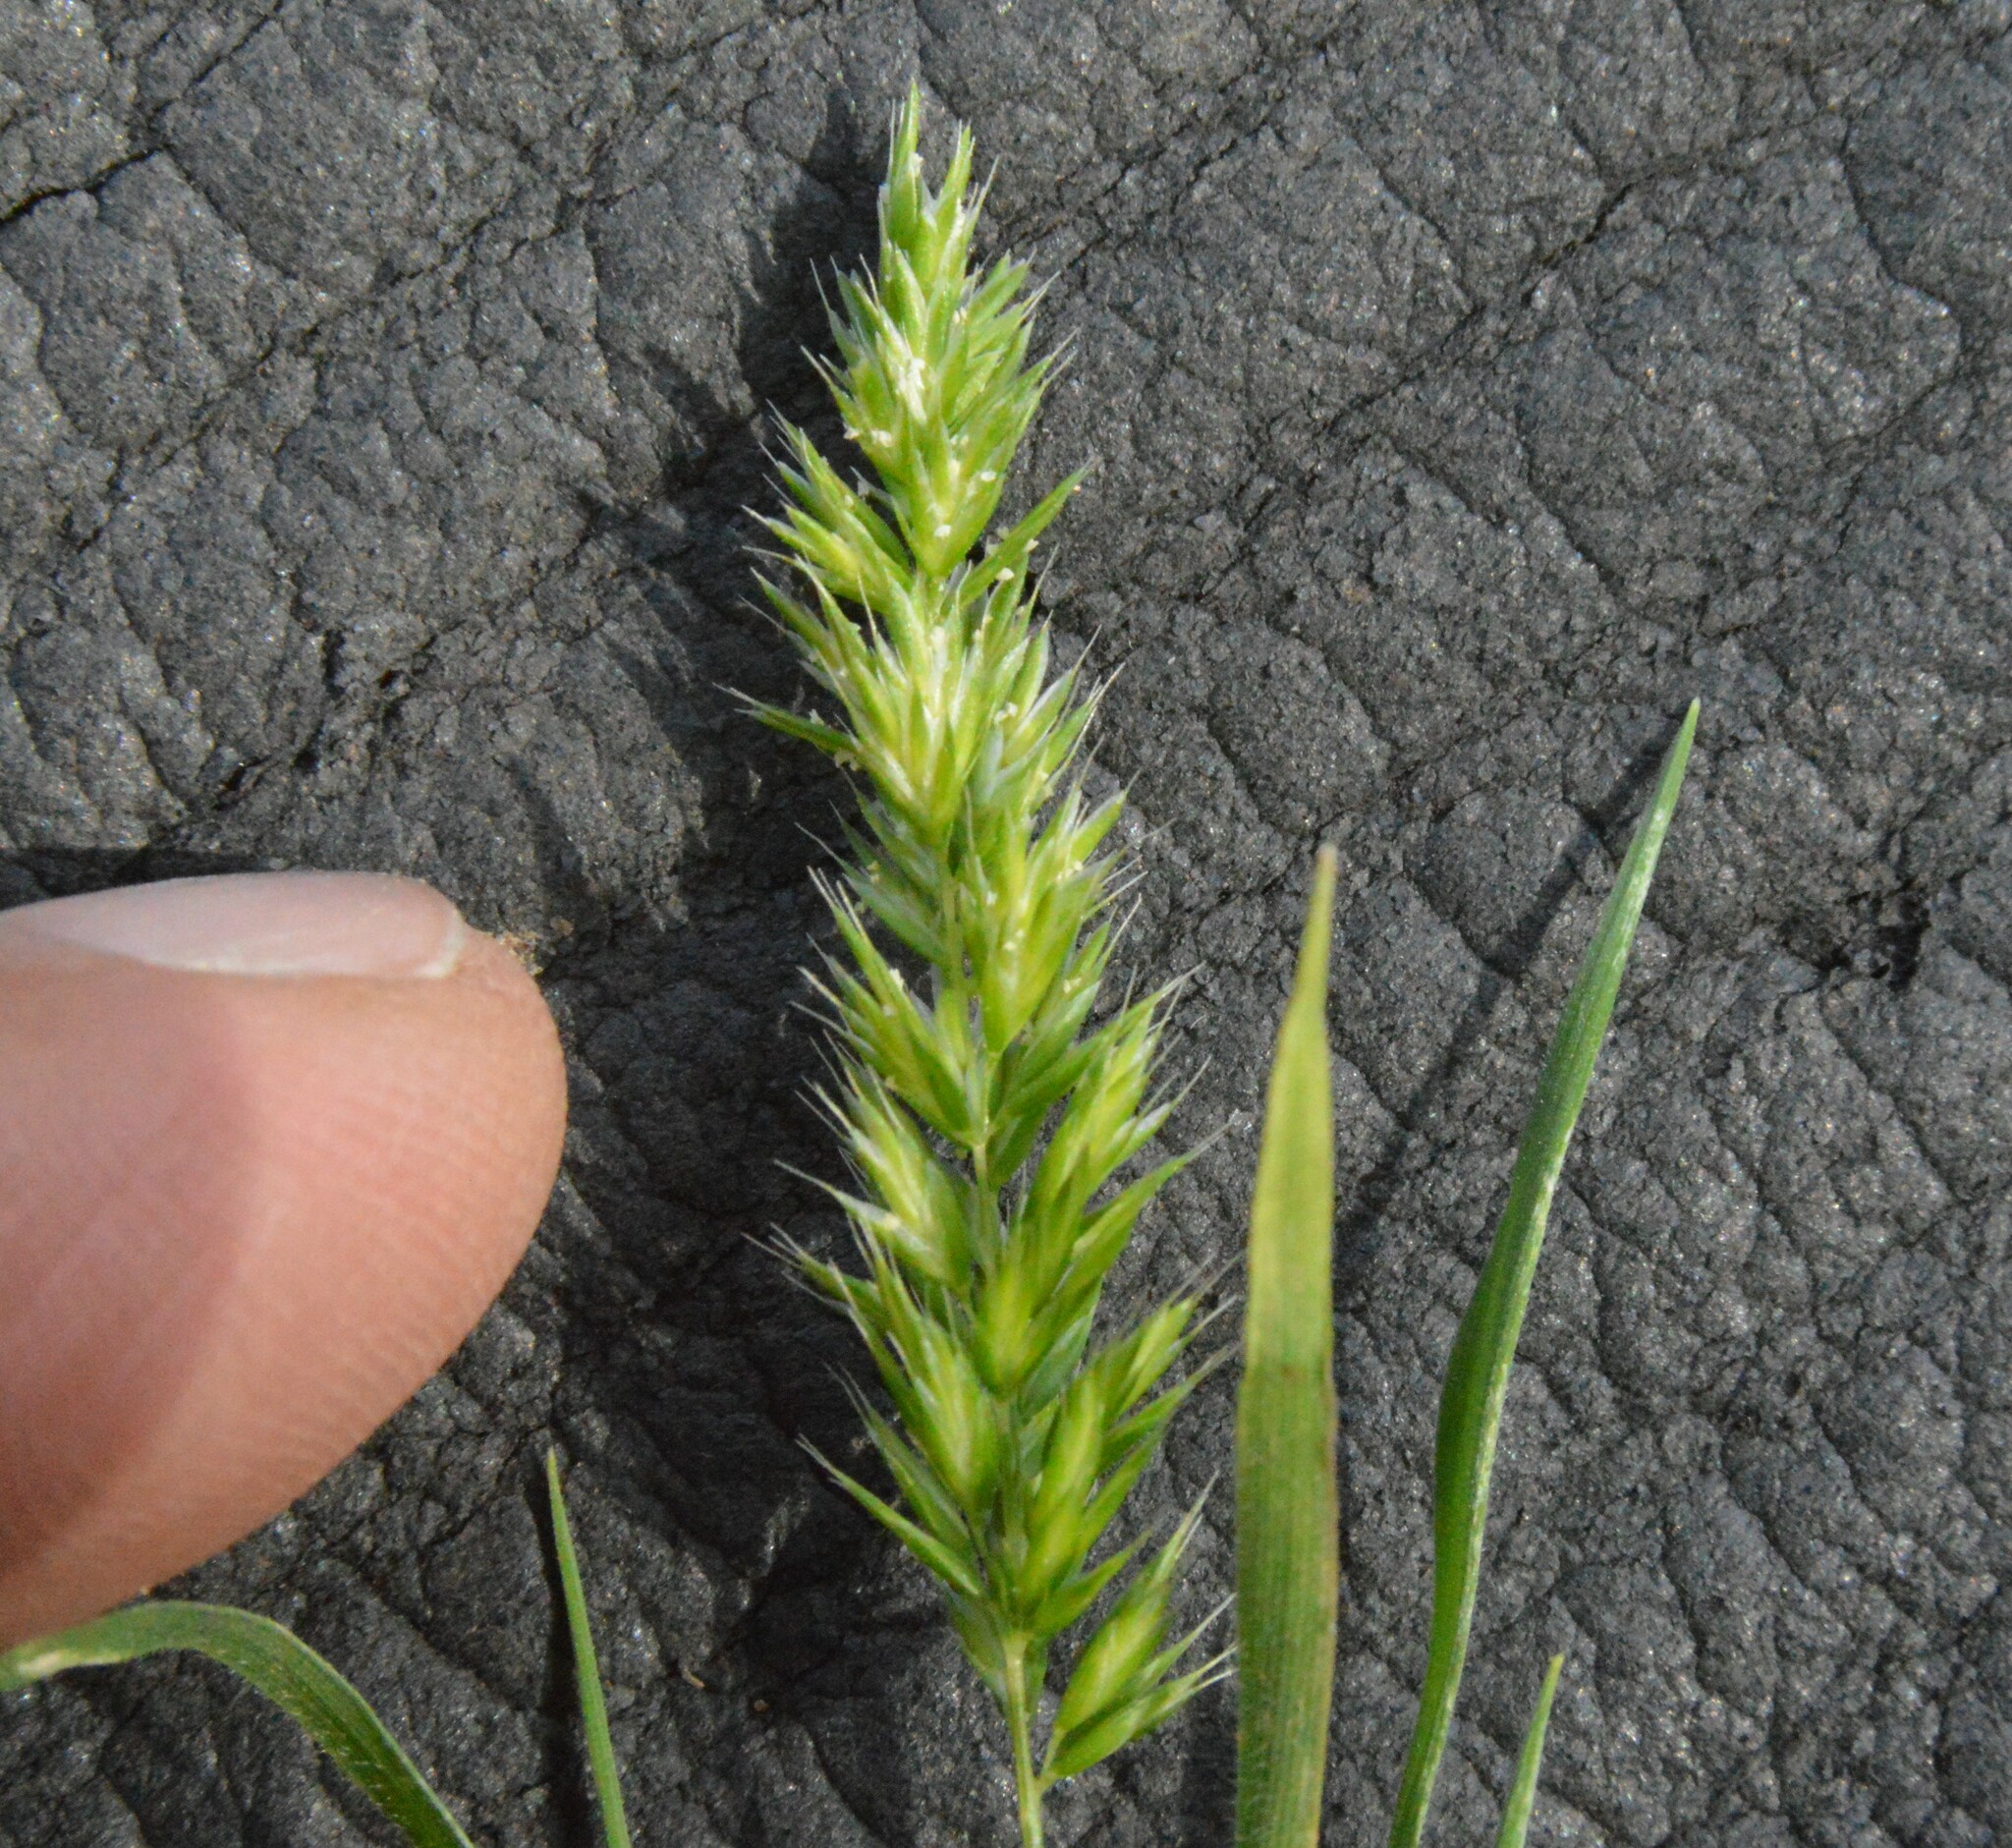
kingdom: Plantae
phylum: Tracheophyta
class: Liliopsida
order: Poales
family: Poaceae
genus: Rostraria
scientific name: Rostraria cristata
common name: Mediterranean hair-grass
